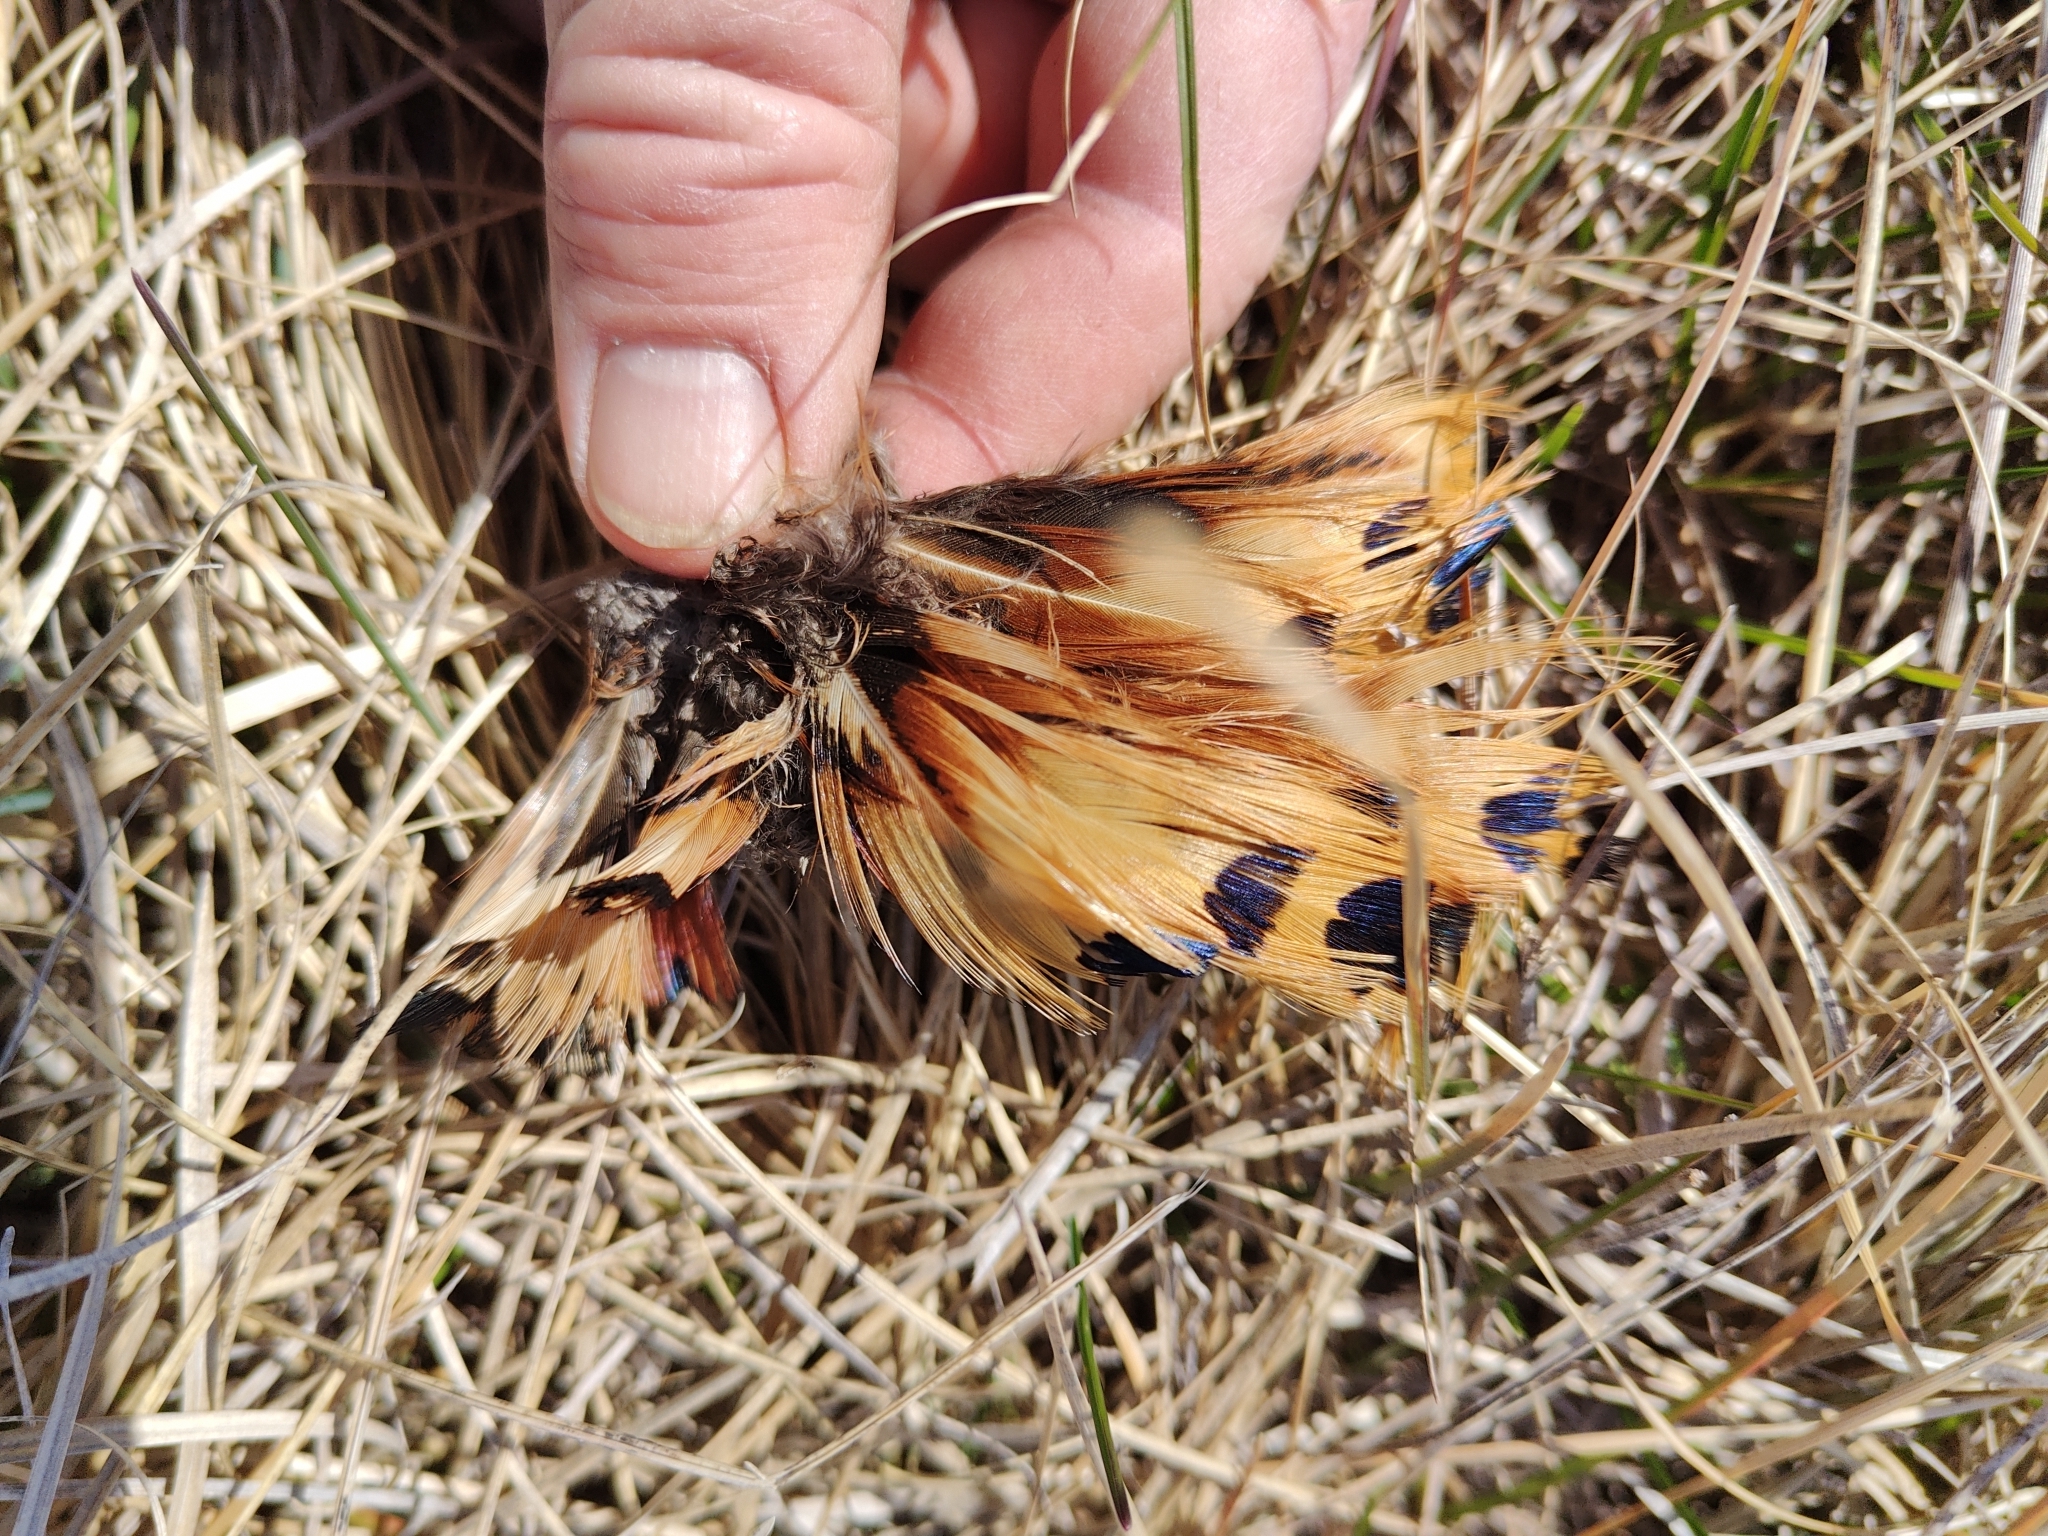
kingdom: Animalia
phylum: Chordata
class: Aves
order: Galliformes
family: Phasianidae
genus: Phasianus
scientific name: Phasianus colchicus
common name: Common pheasant
